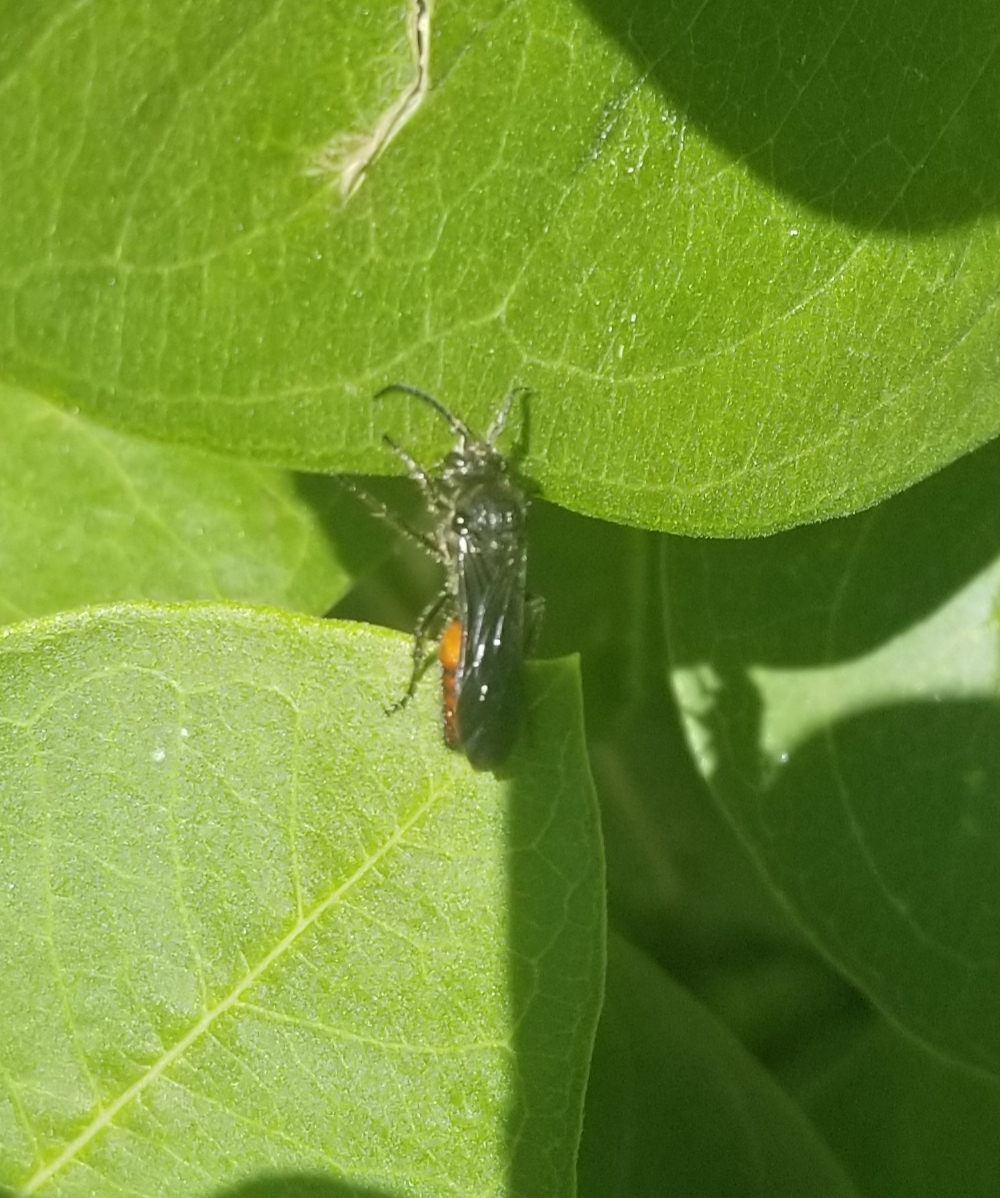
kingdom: Animalia
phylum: Arthropoda
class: Insecta
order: Hymenoptera
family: Mutillidae
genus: Timulla
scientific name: Timulla
